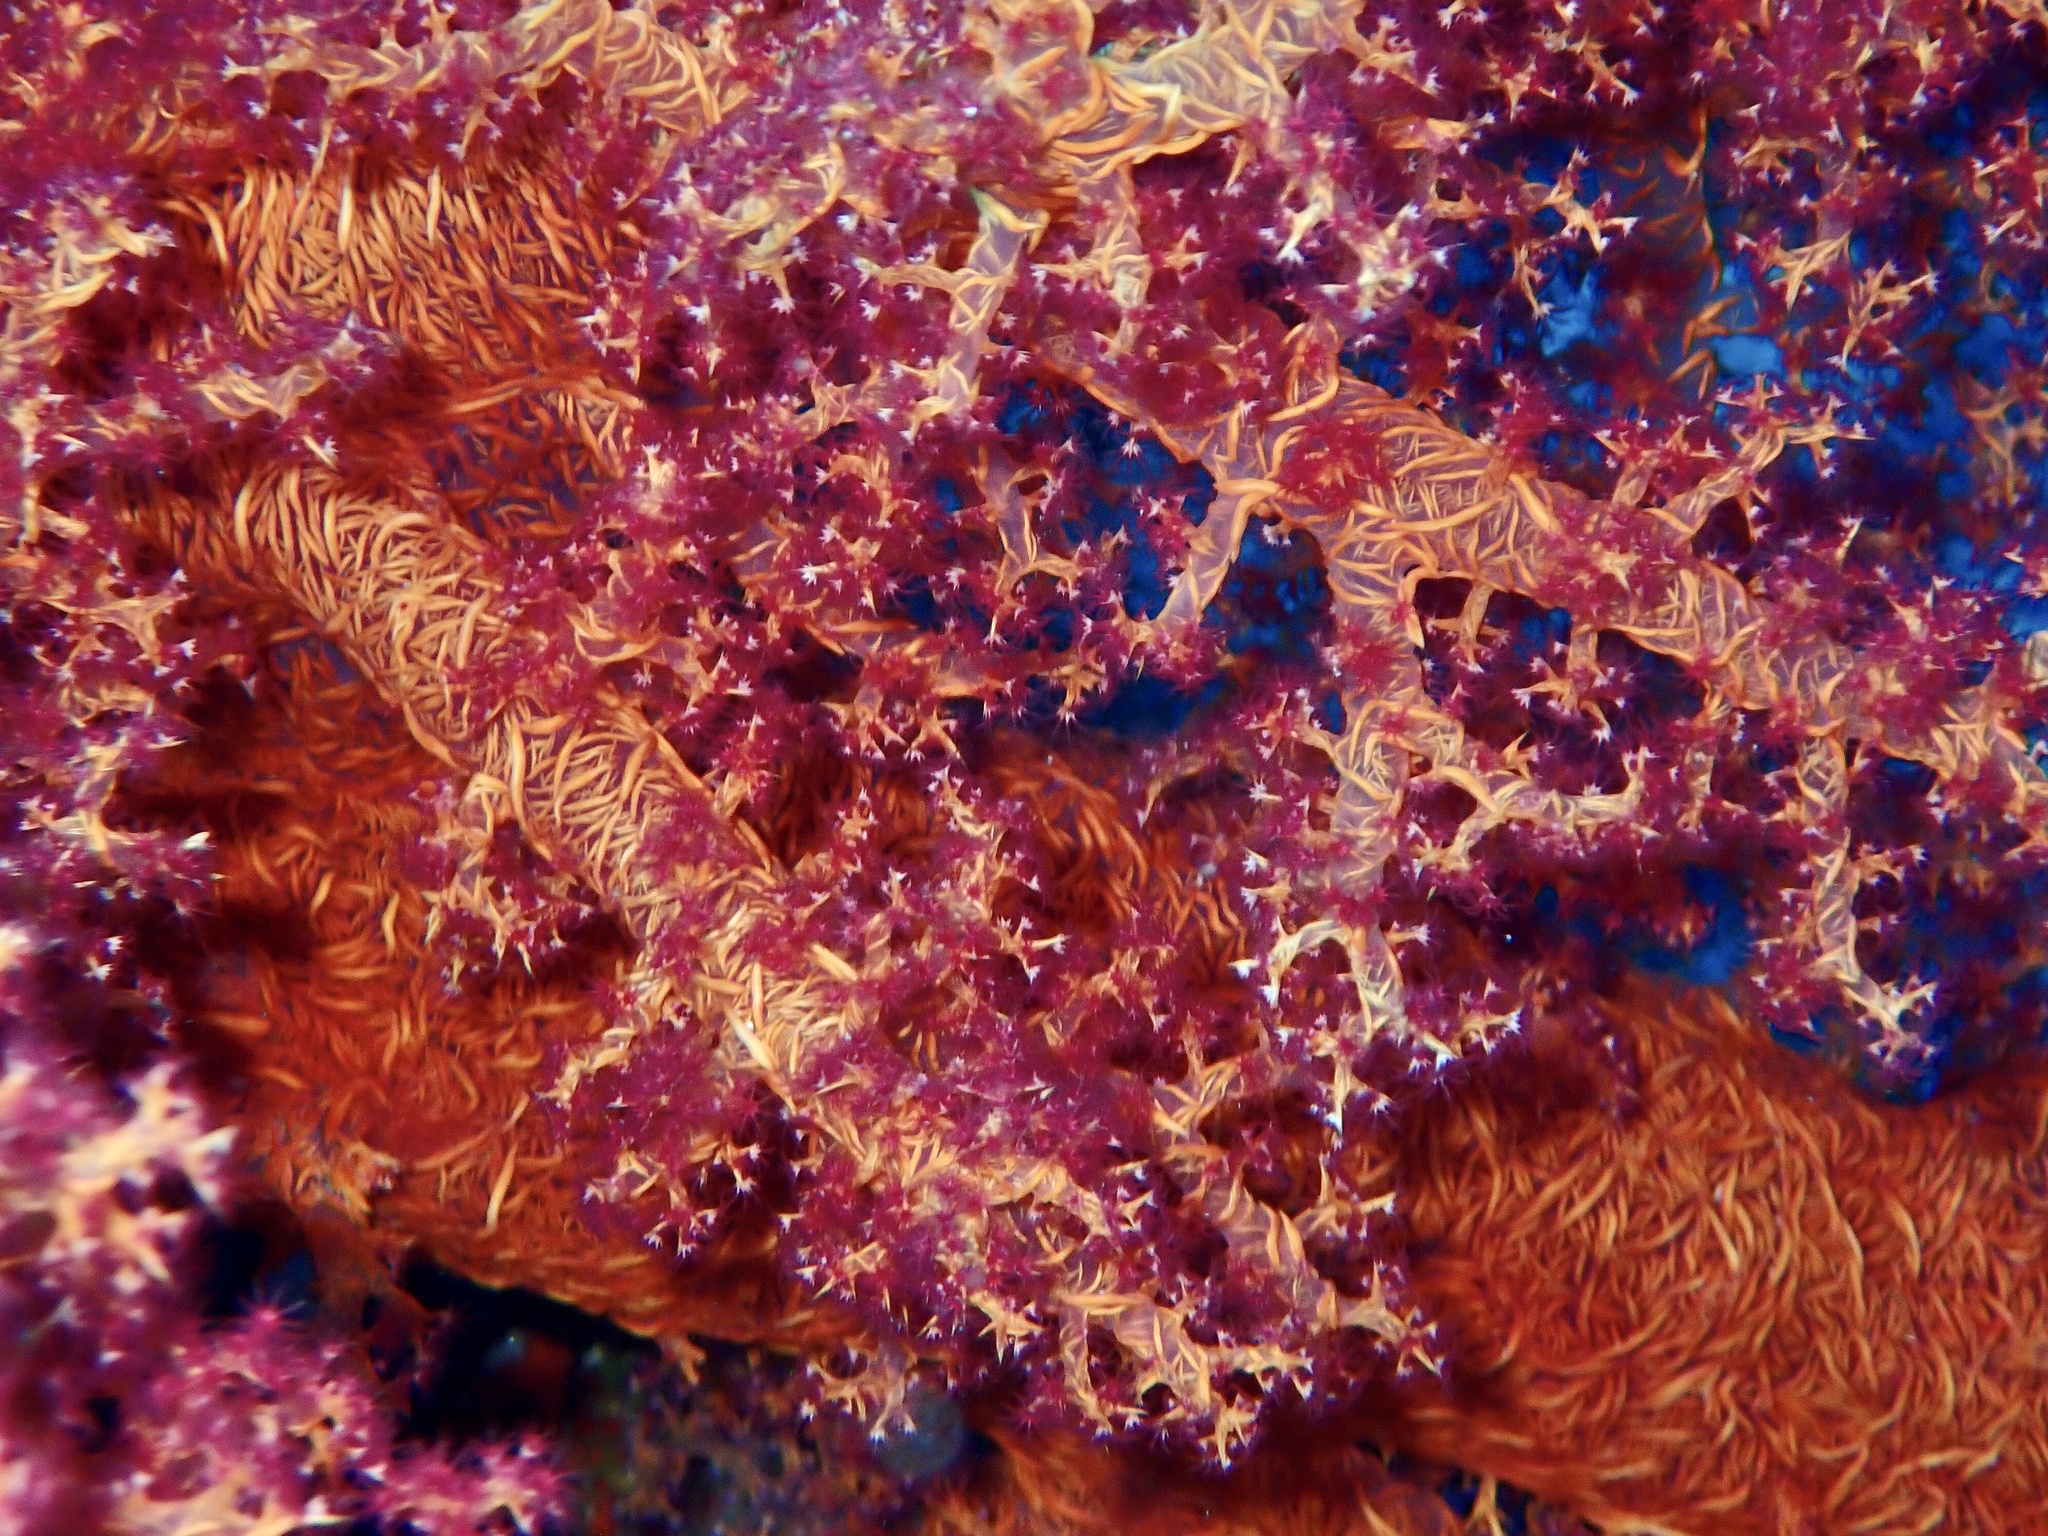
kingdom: Animalia
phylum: Cnidaria
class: Anthozoa
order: Malacalcyonacea
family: Nephtheidae
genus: Dendronephthya
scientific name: Dendronephthya hemprichi
